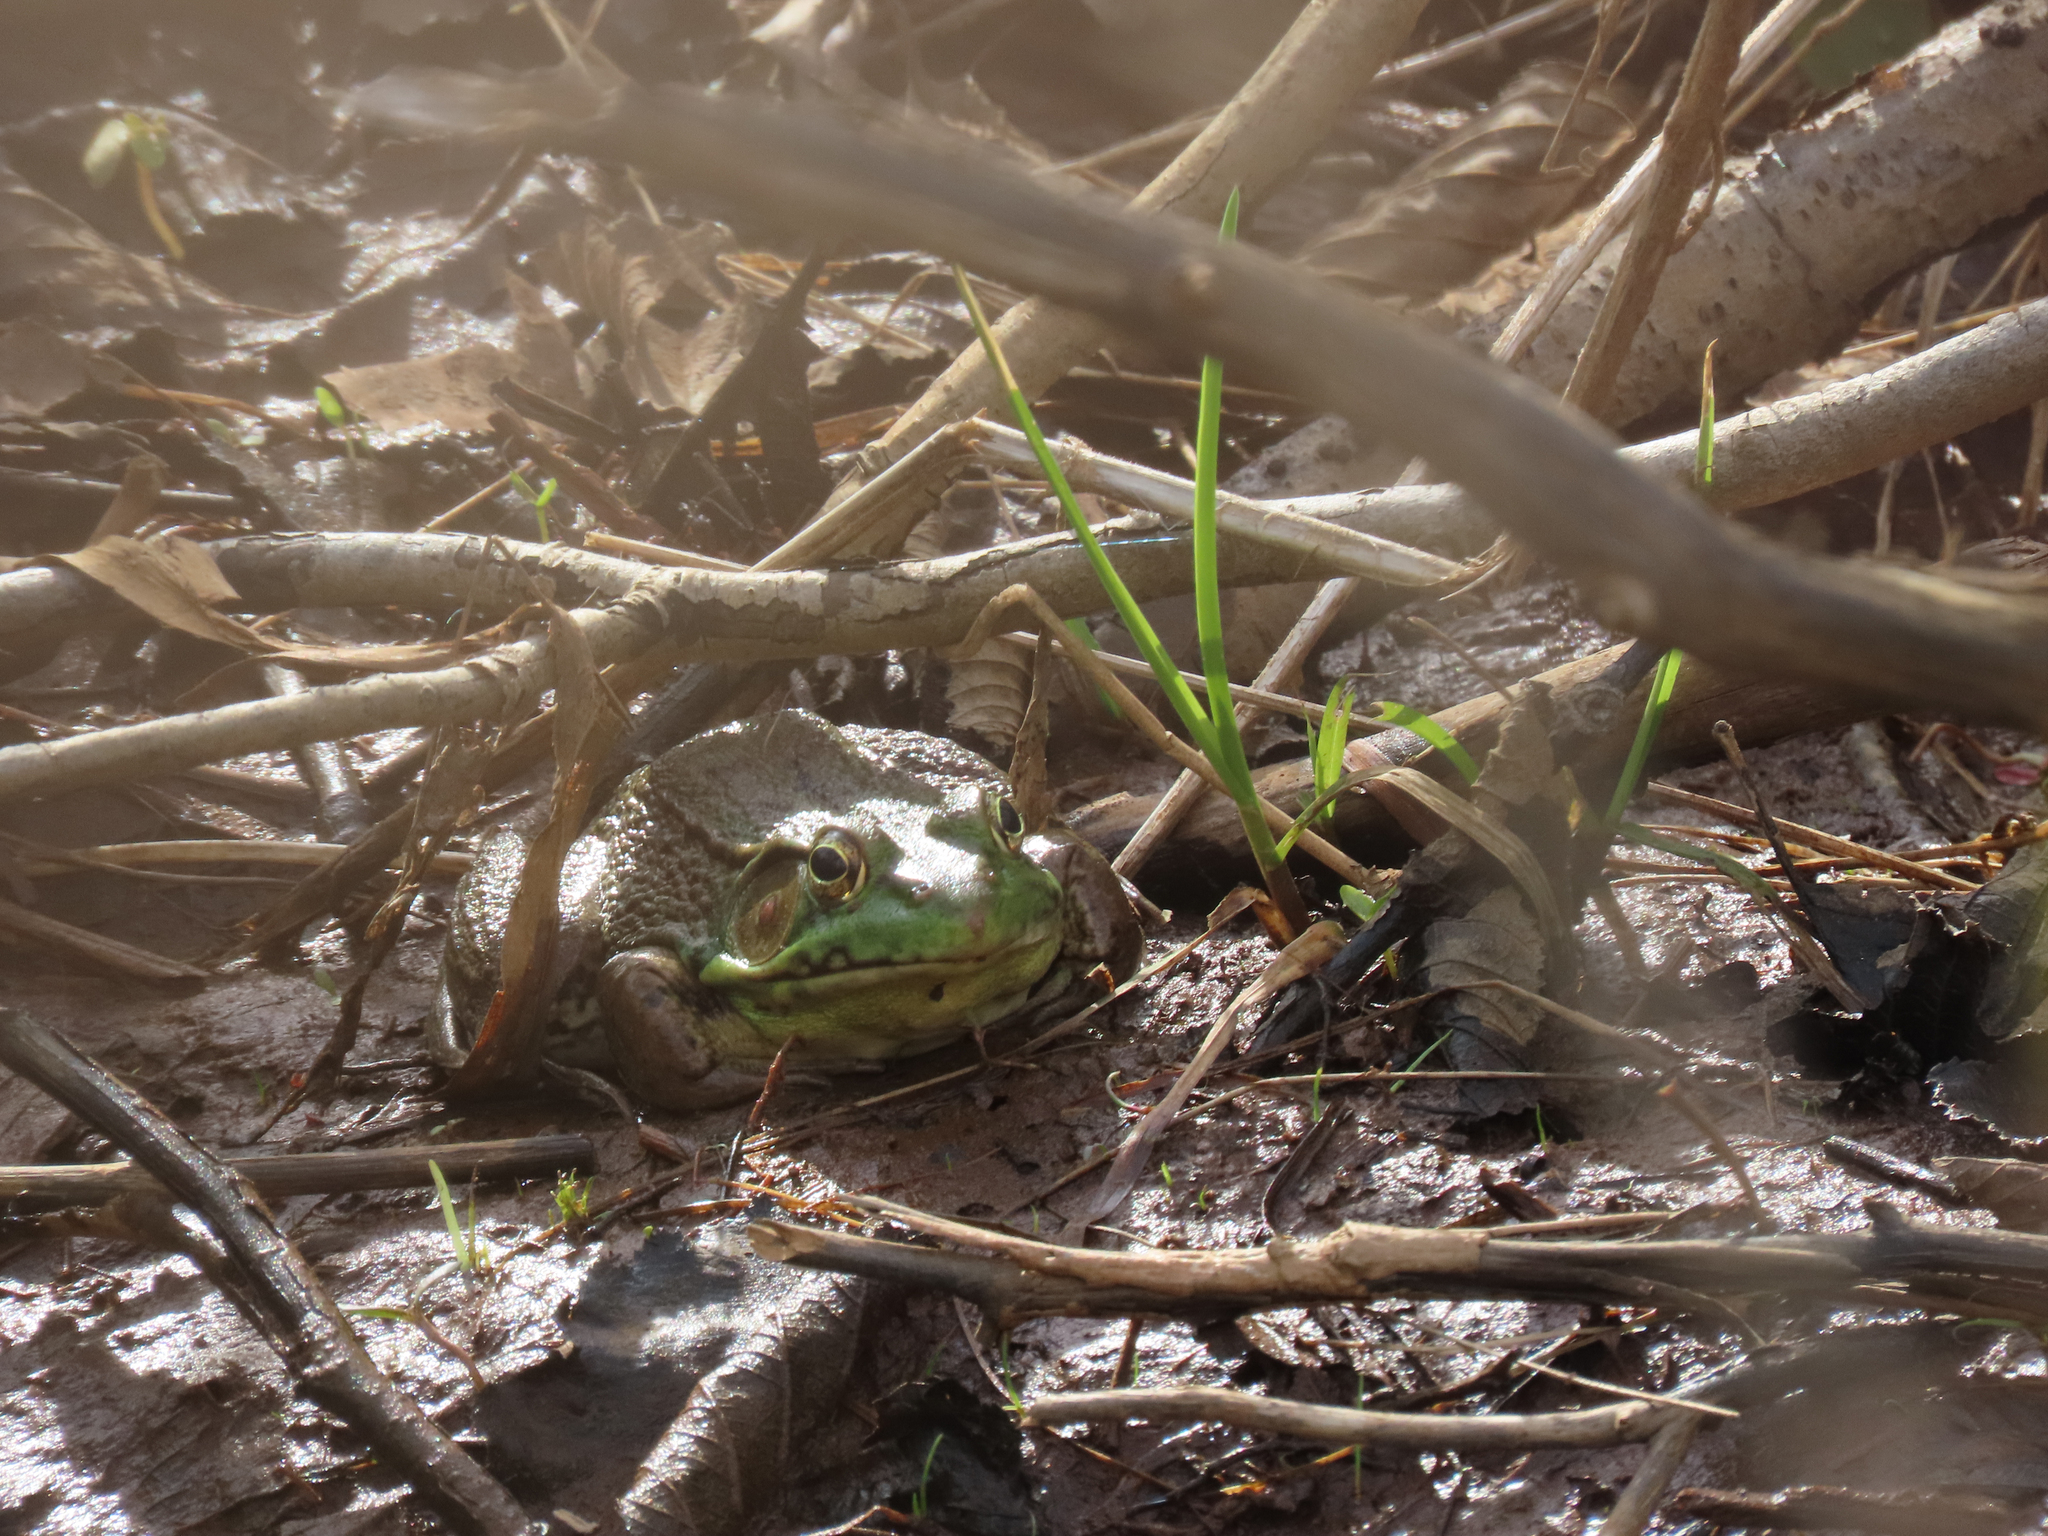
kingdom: Animalia
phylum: Chordata
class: Amphibia
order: Anura
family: Ranidae
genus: Lithobates
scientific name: Lithobates clamitans
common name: Green frog
